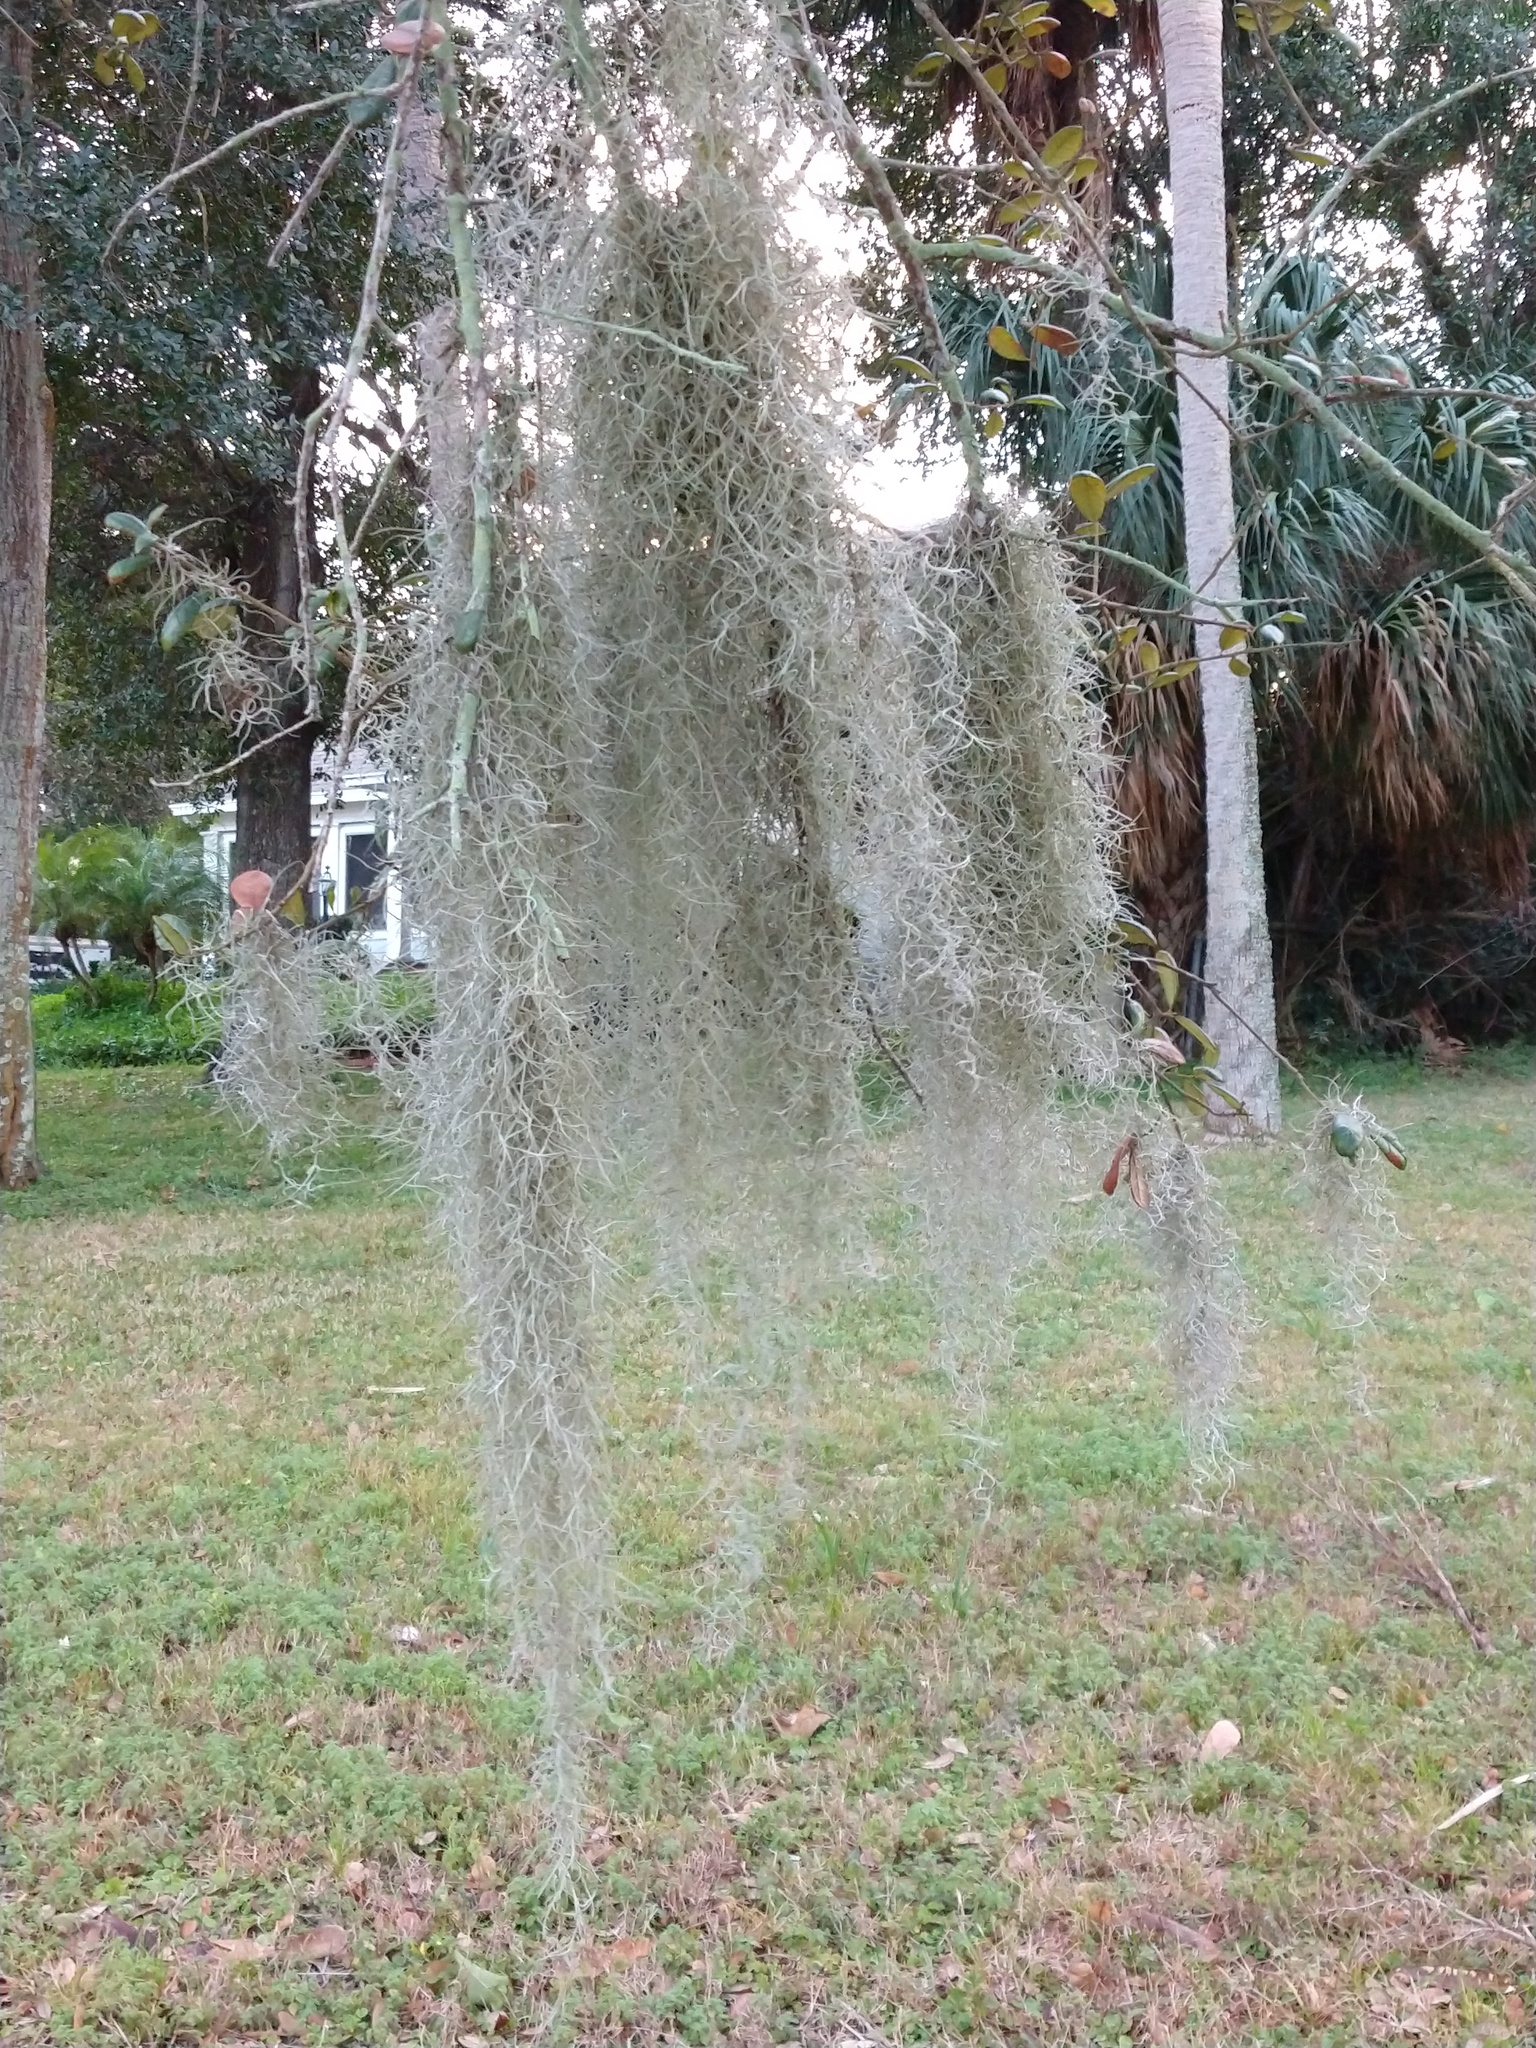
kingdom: Plantae
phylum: Tracheophyta
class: Liliopsida
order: Poales
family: Bromeliaceae
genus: Tillandsia
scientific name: Tillandsia usneoides
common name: Spanish moss
